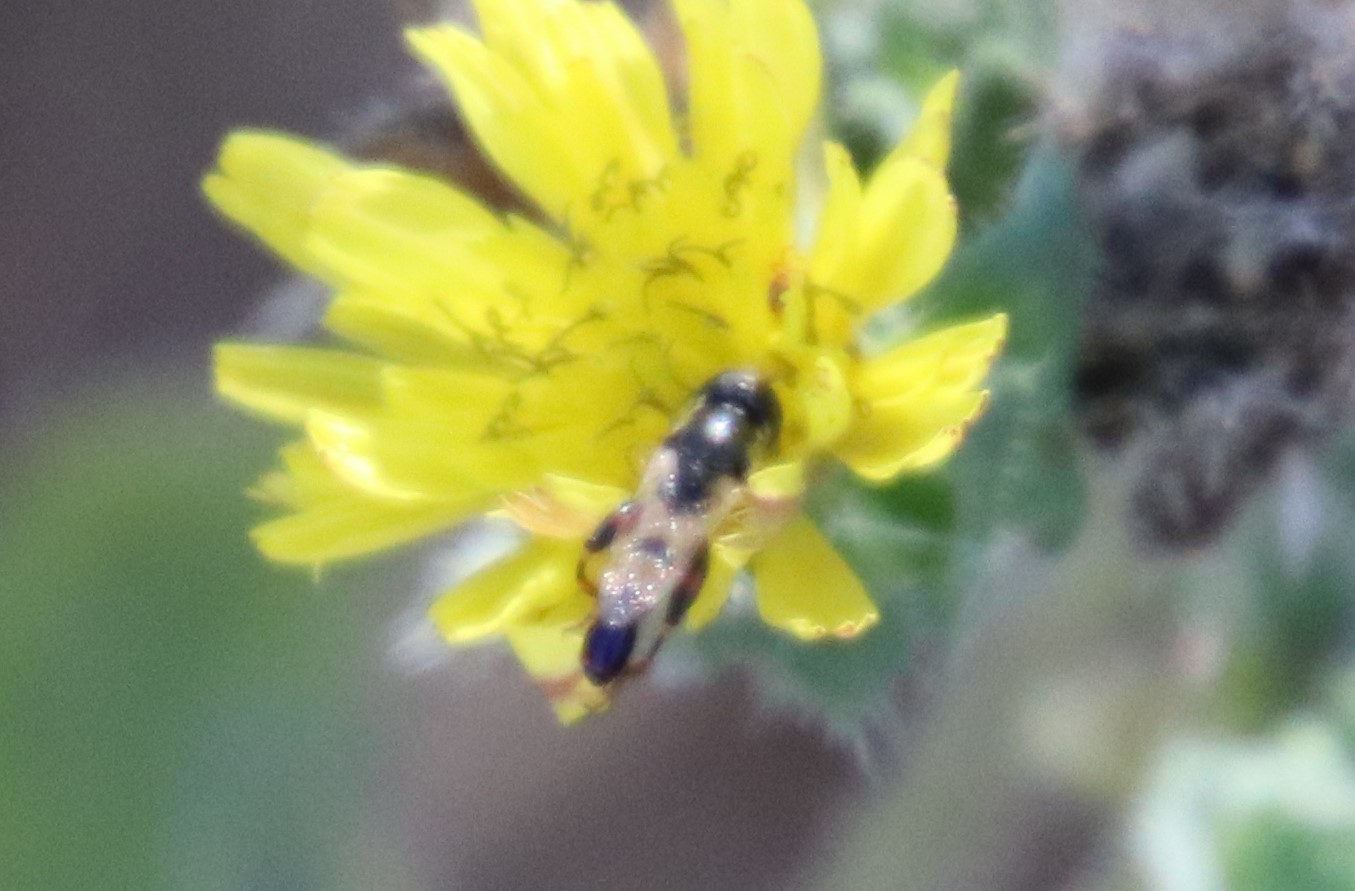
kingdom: Animalia
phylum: Arthropoda
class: Insecta
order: Diptera
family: Syrphidae
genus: Syritta
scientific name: Syritta pipiens
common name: Hover fly
